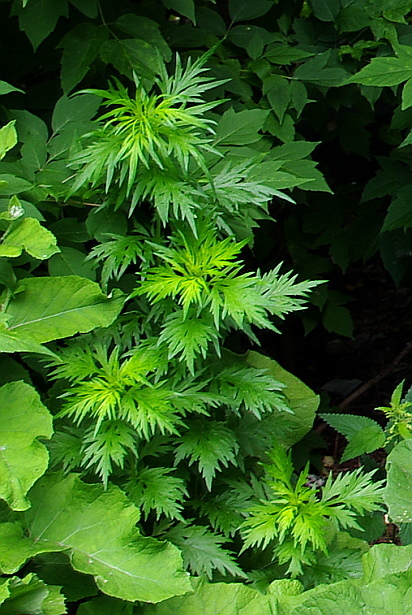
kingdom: Plantae
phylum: Tracheophyta
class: Magnoliopsida
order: Asterales
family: Asteraceae
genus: Artemisia
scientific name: Artemisia vulgaris
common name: Mugwort
